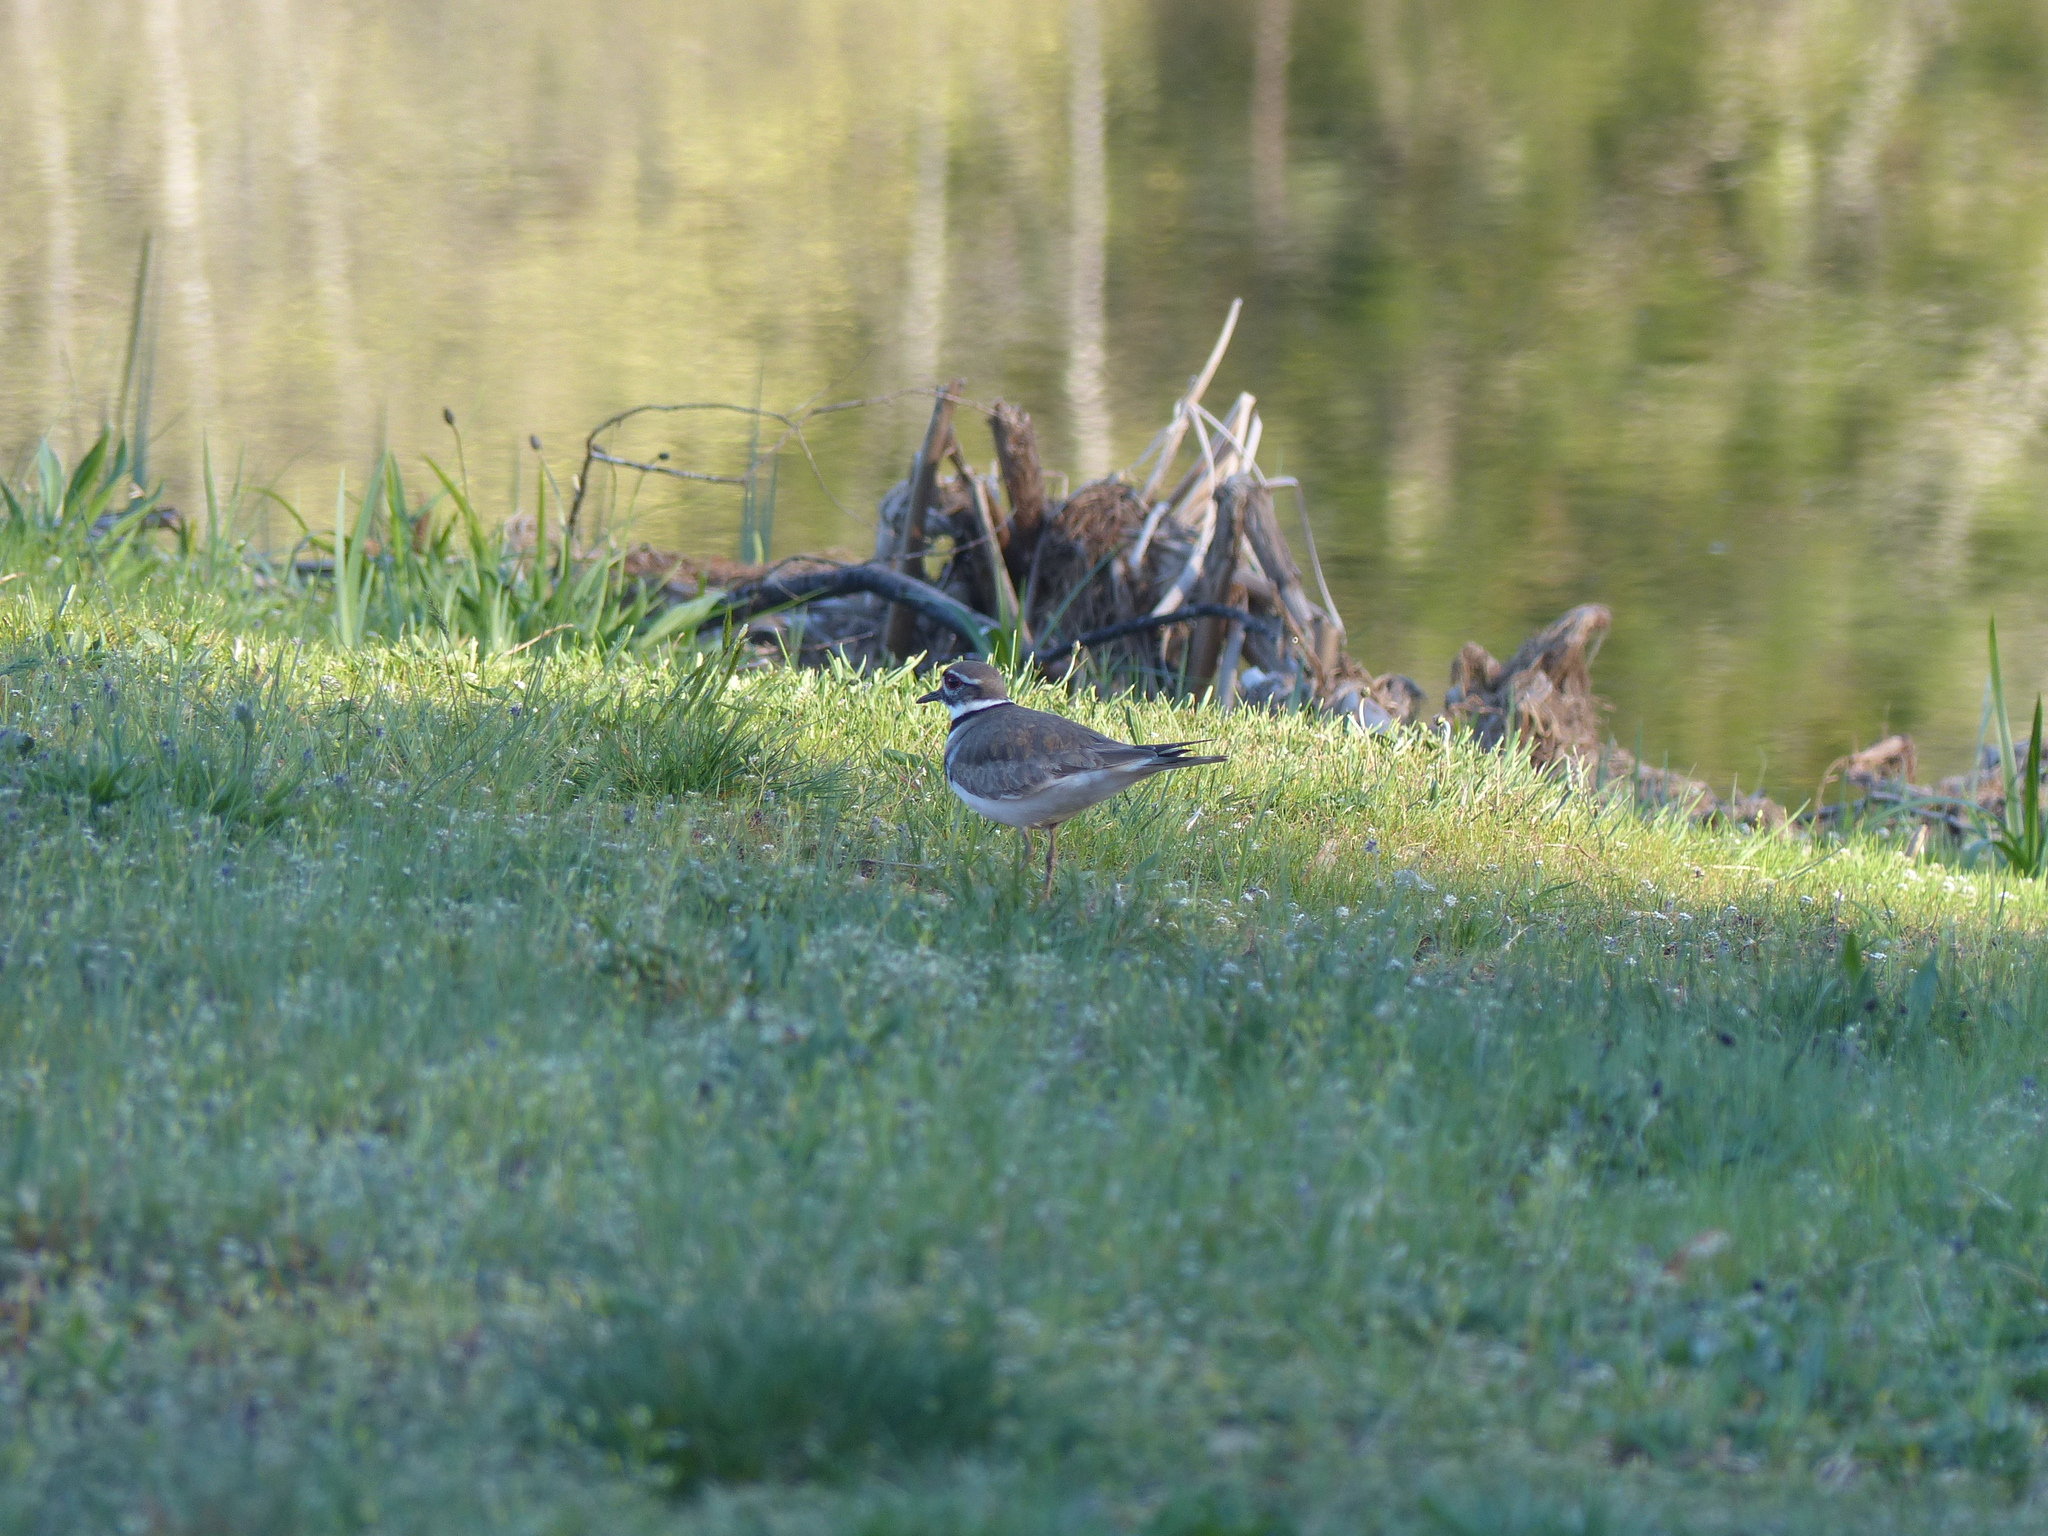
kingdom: Animalia
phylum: Chordata
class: Aves
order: Charadriiformes
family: Charadriidae
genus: Charadrius
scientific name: Charadrius vociferus
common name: Killdeer
